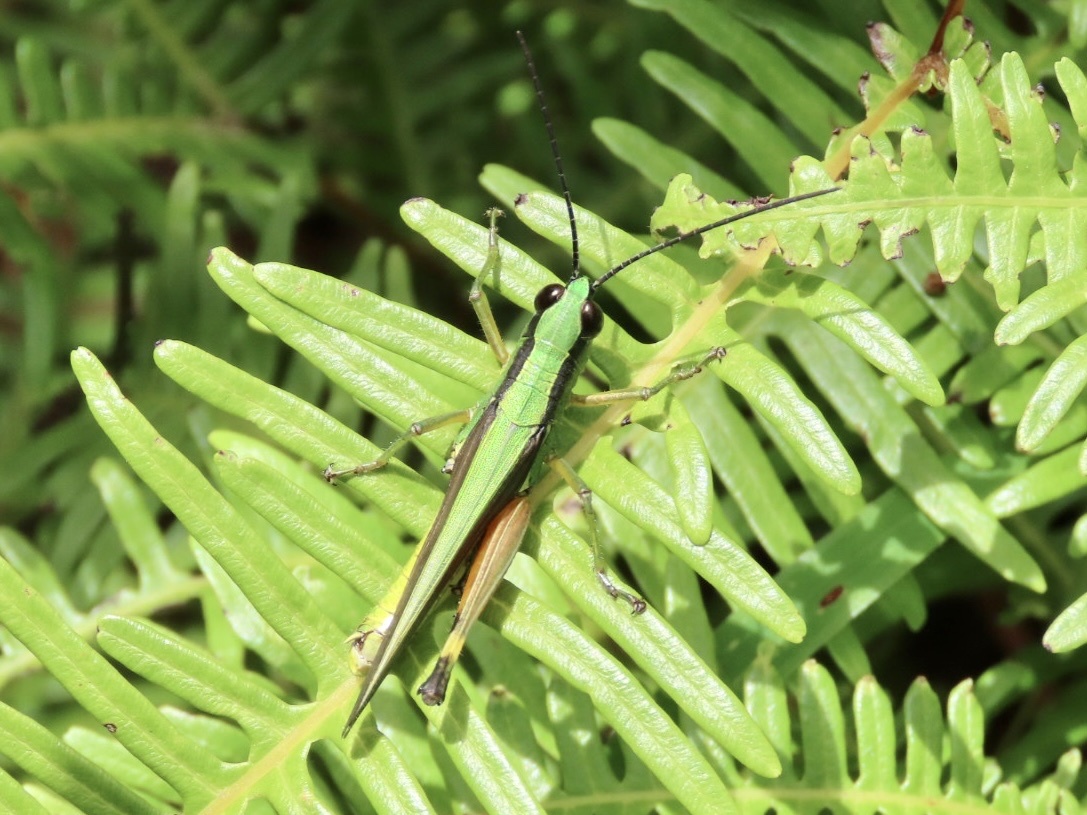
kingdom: Animalia
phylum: Arthropoda
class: Insecta
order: Orthoptera
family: Acrididae
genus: Ceracris
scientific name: Ceracris nigricornis
